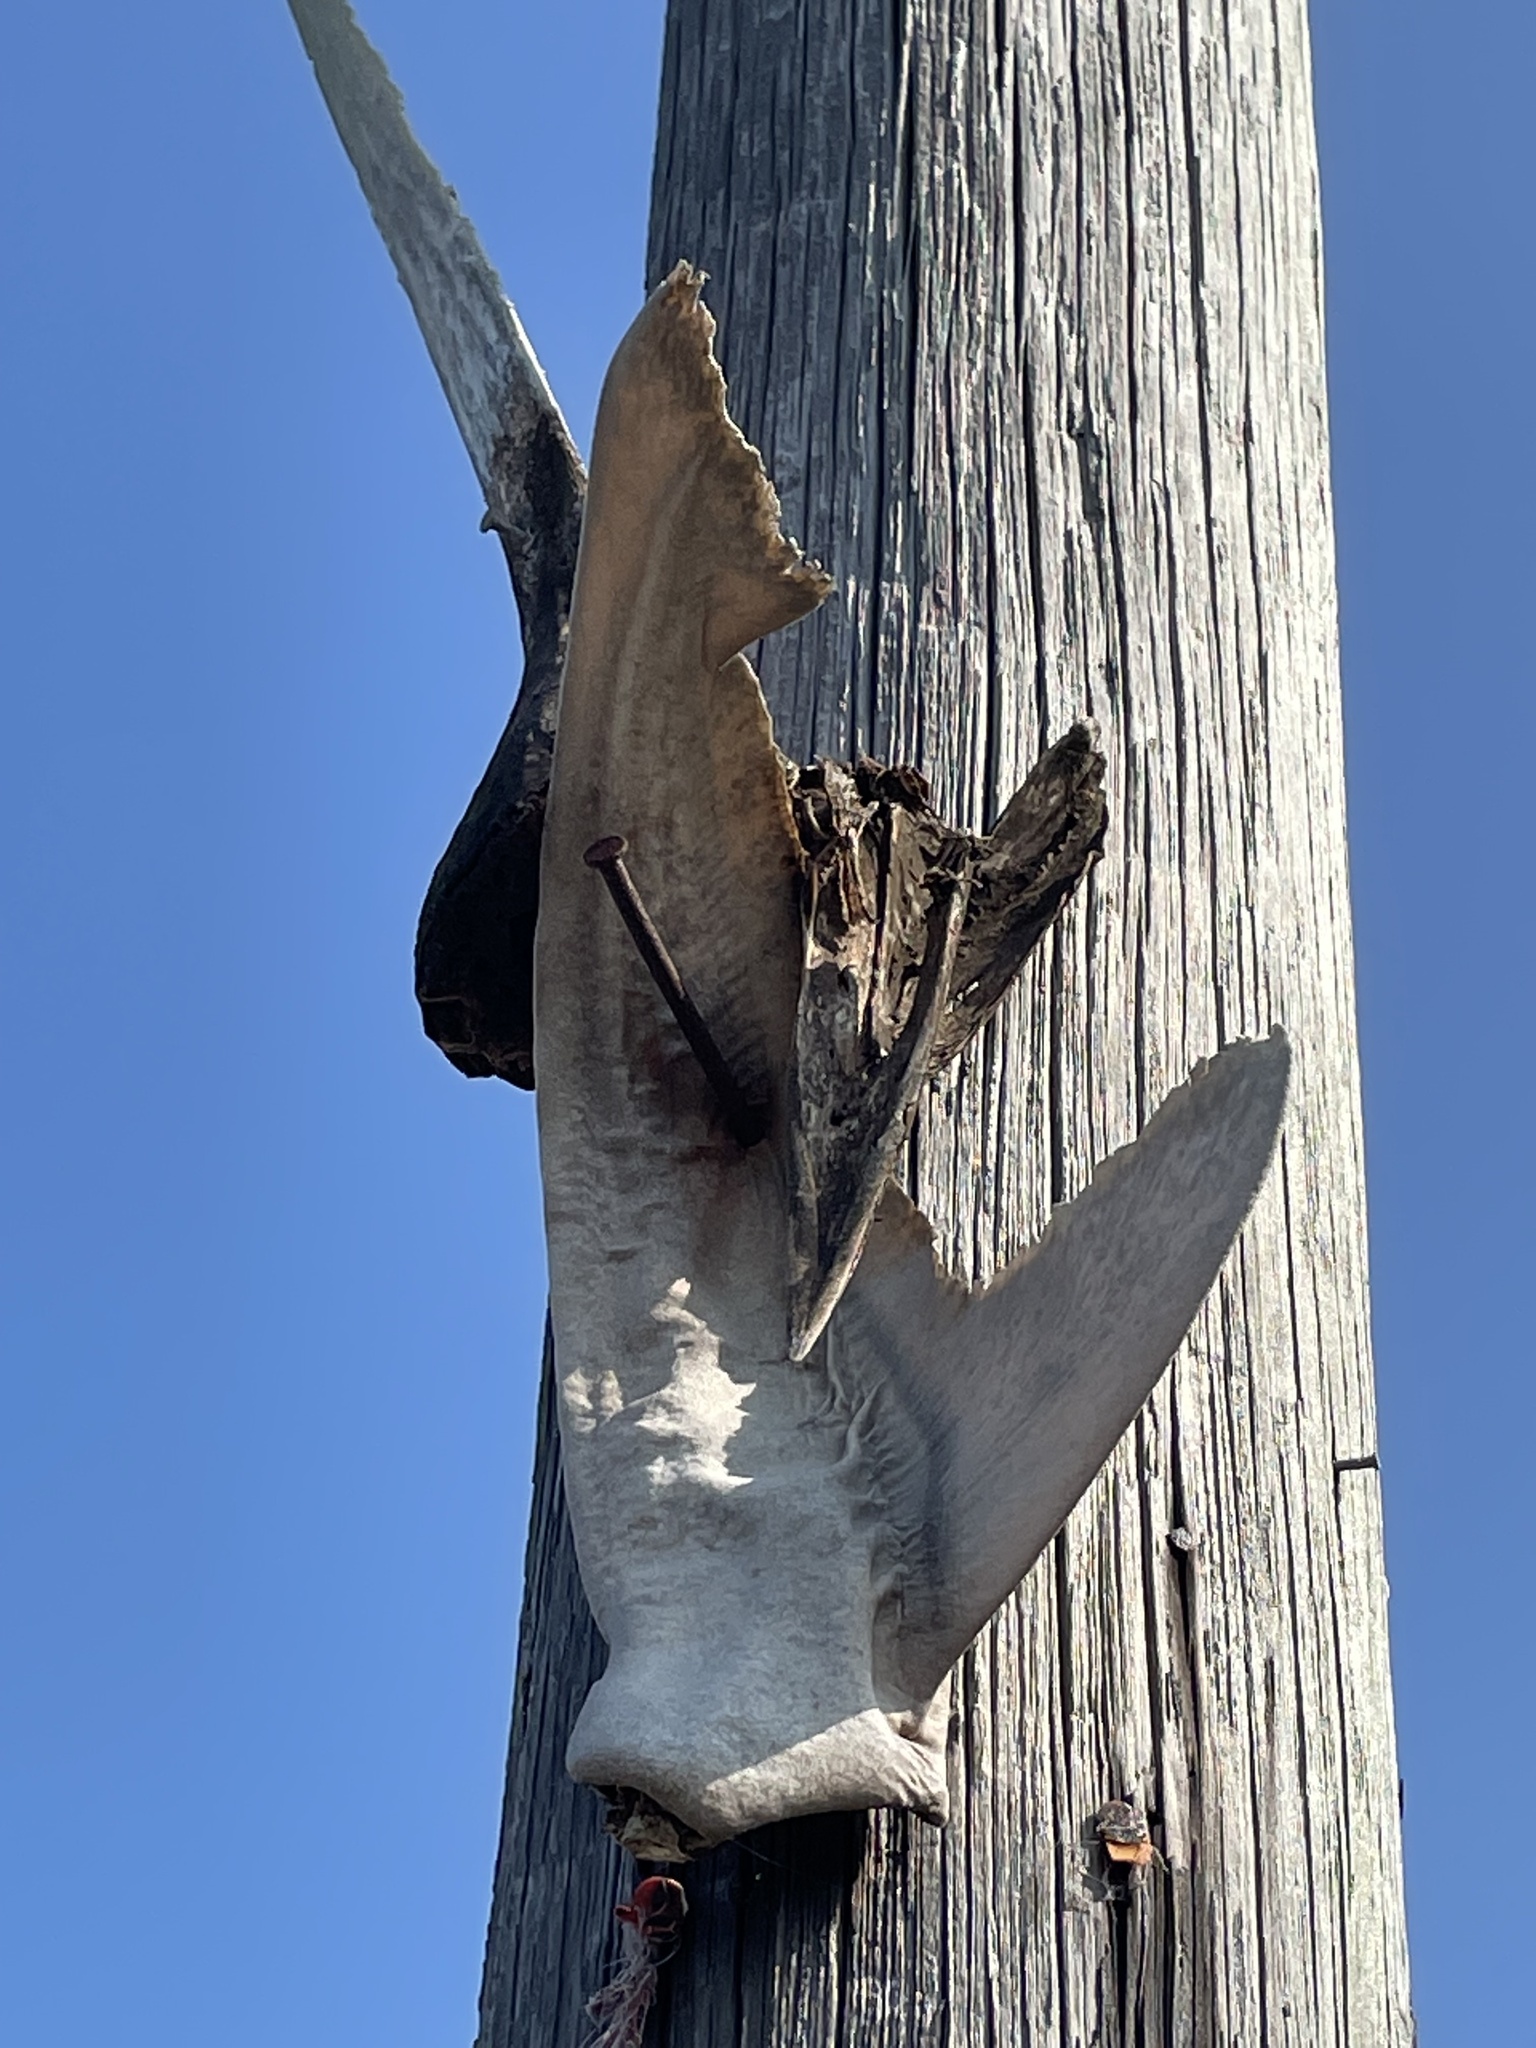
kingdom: Animalia
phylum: Chordata
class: Elasmobranchii
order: Lamniformes
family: Odontaspididae
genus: Carcharias
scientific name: Carcharias taurus
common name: Sand shark
